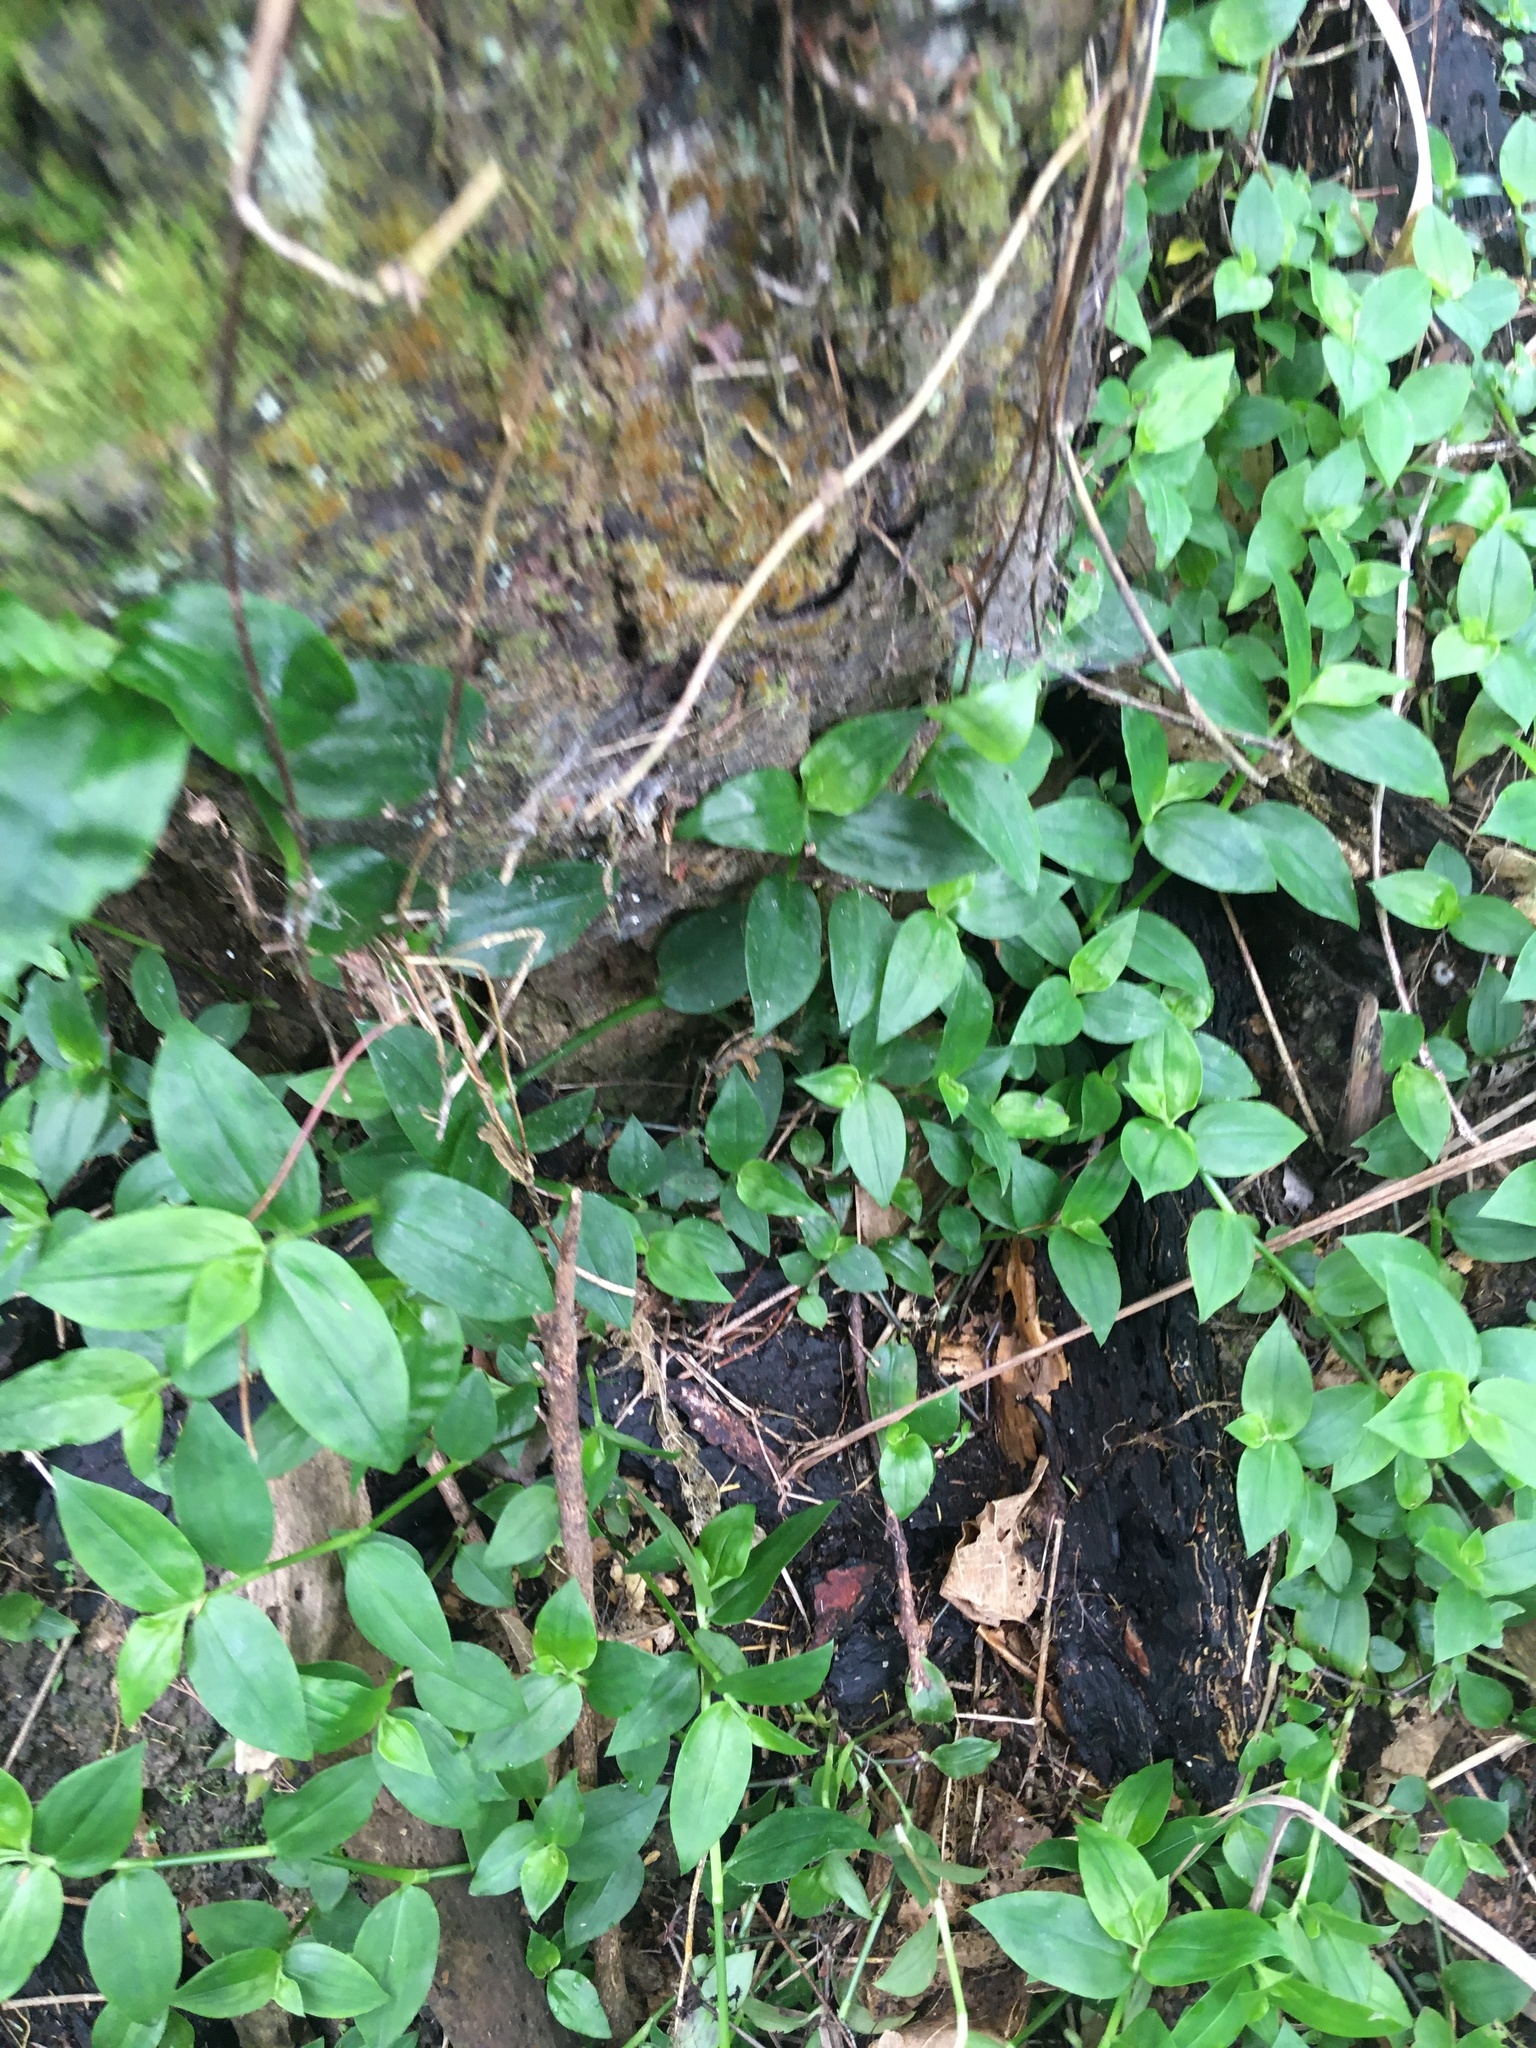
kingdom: Plantae
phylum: Tracheophyta
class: Liliopsida
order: Commelinales
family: Commelinaceae
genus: Tradescantia
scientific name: Tradescantia fluminensis
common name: Wandering-jew
